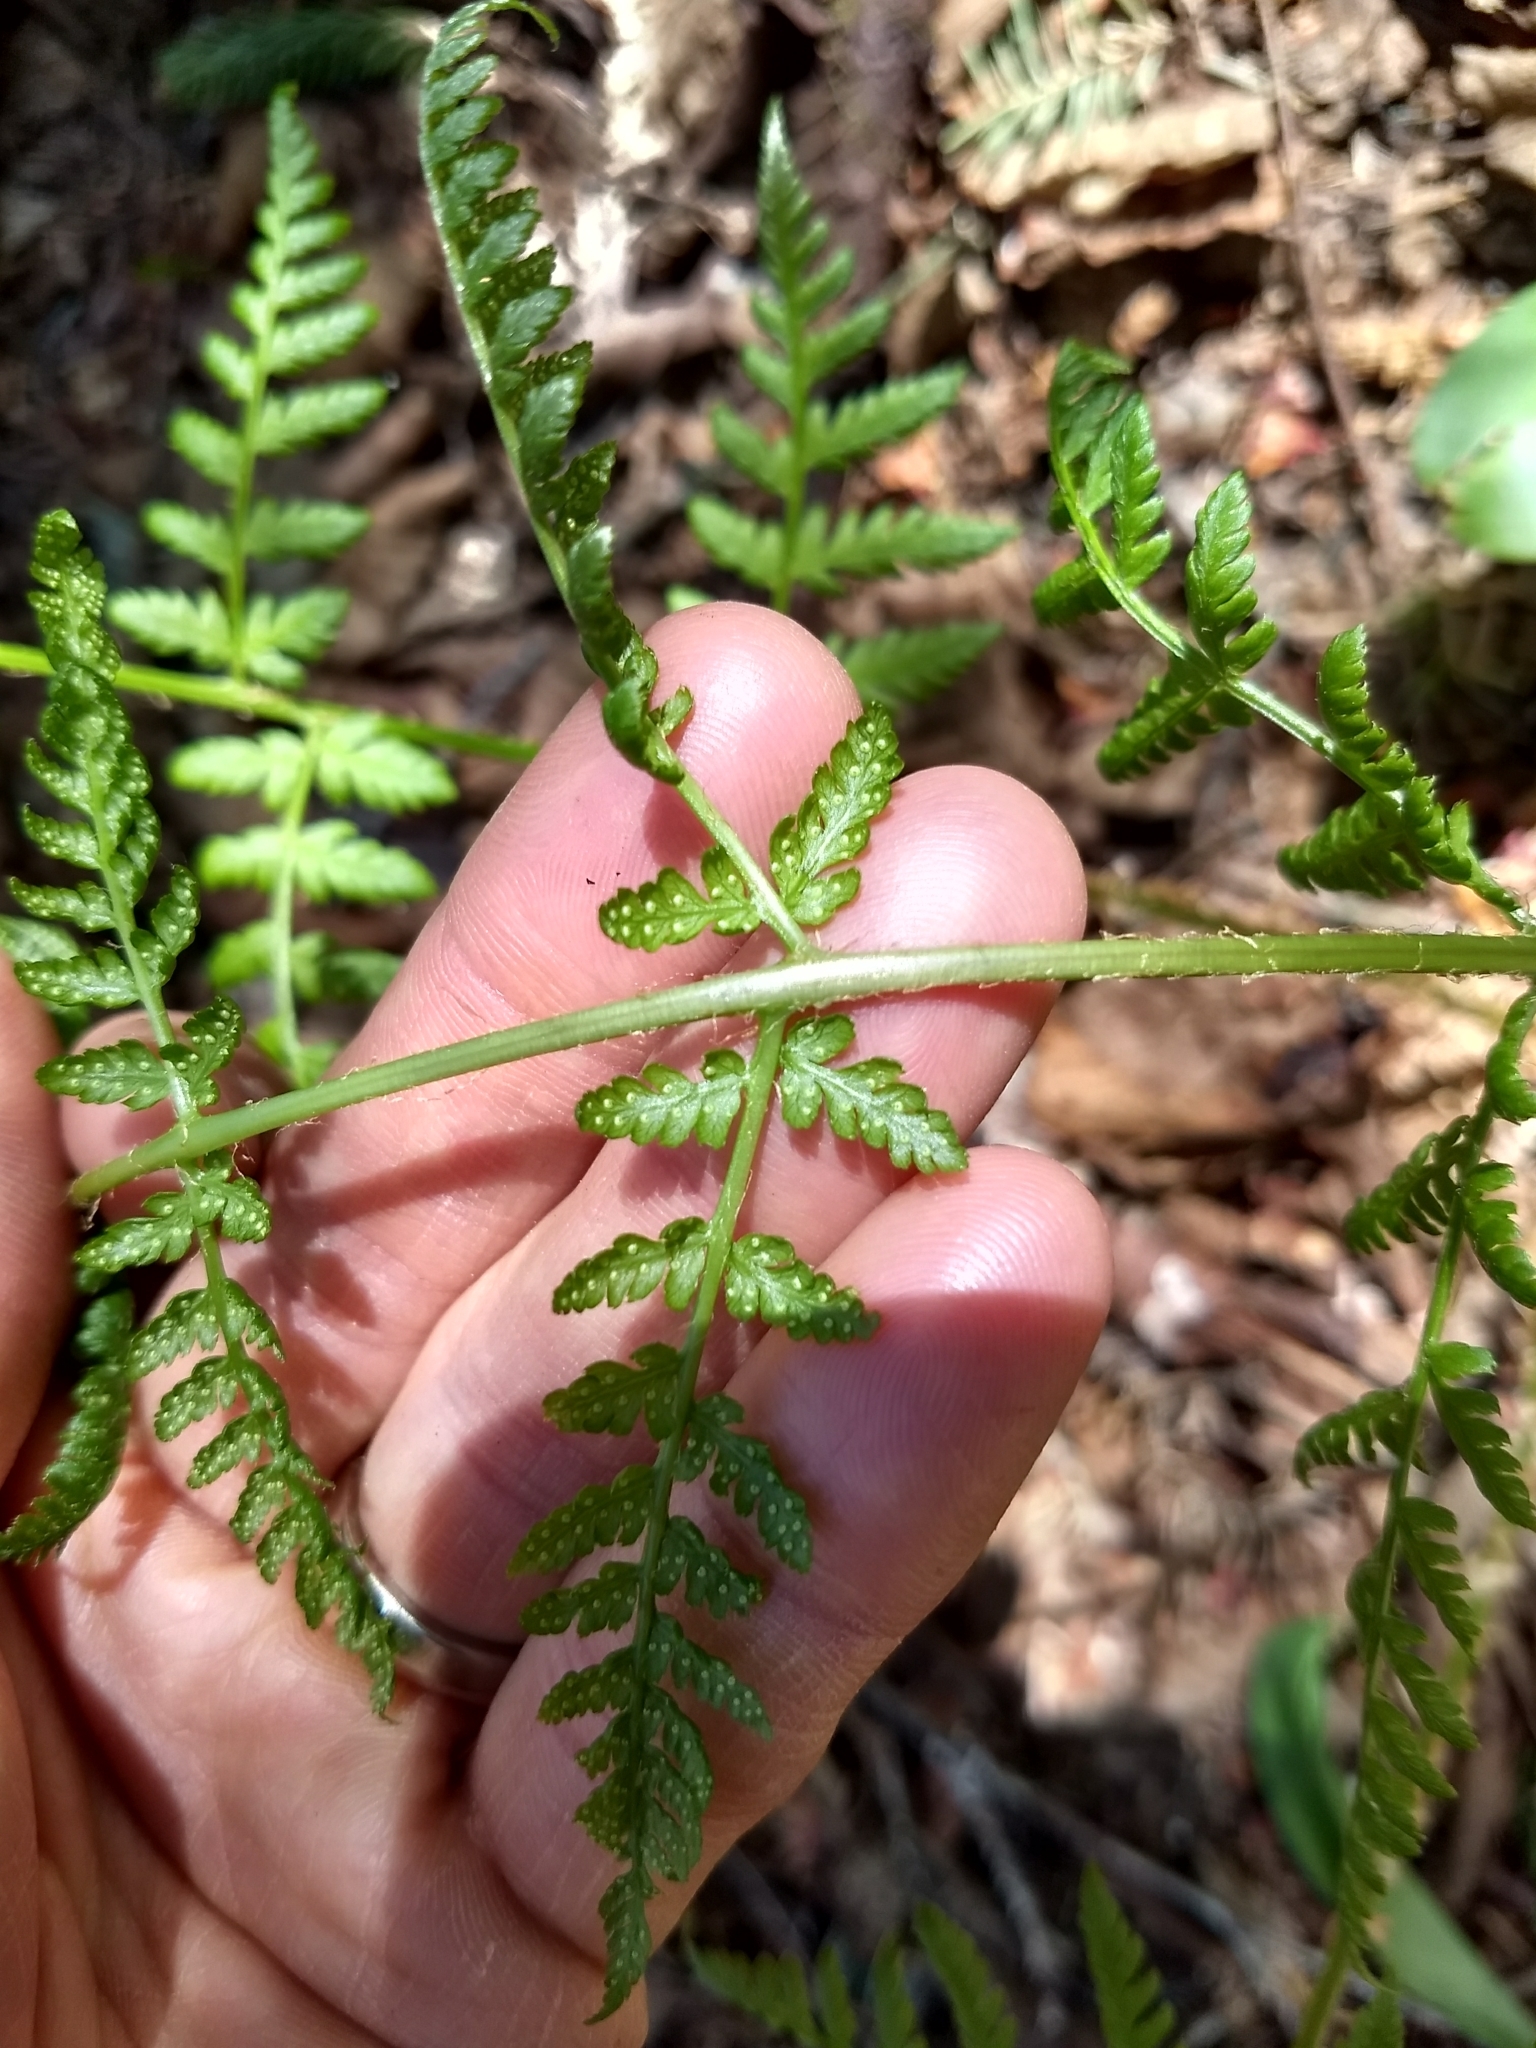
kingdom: Plantae
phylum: Tracheophyta
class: Polypodiopsida
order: Polypodiales
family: Dryopteridaceae
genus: Dryopteris
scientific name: Dryopteris campyloptera
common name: Mountain wood fern
